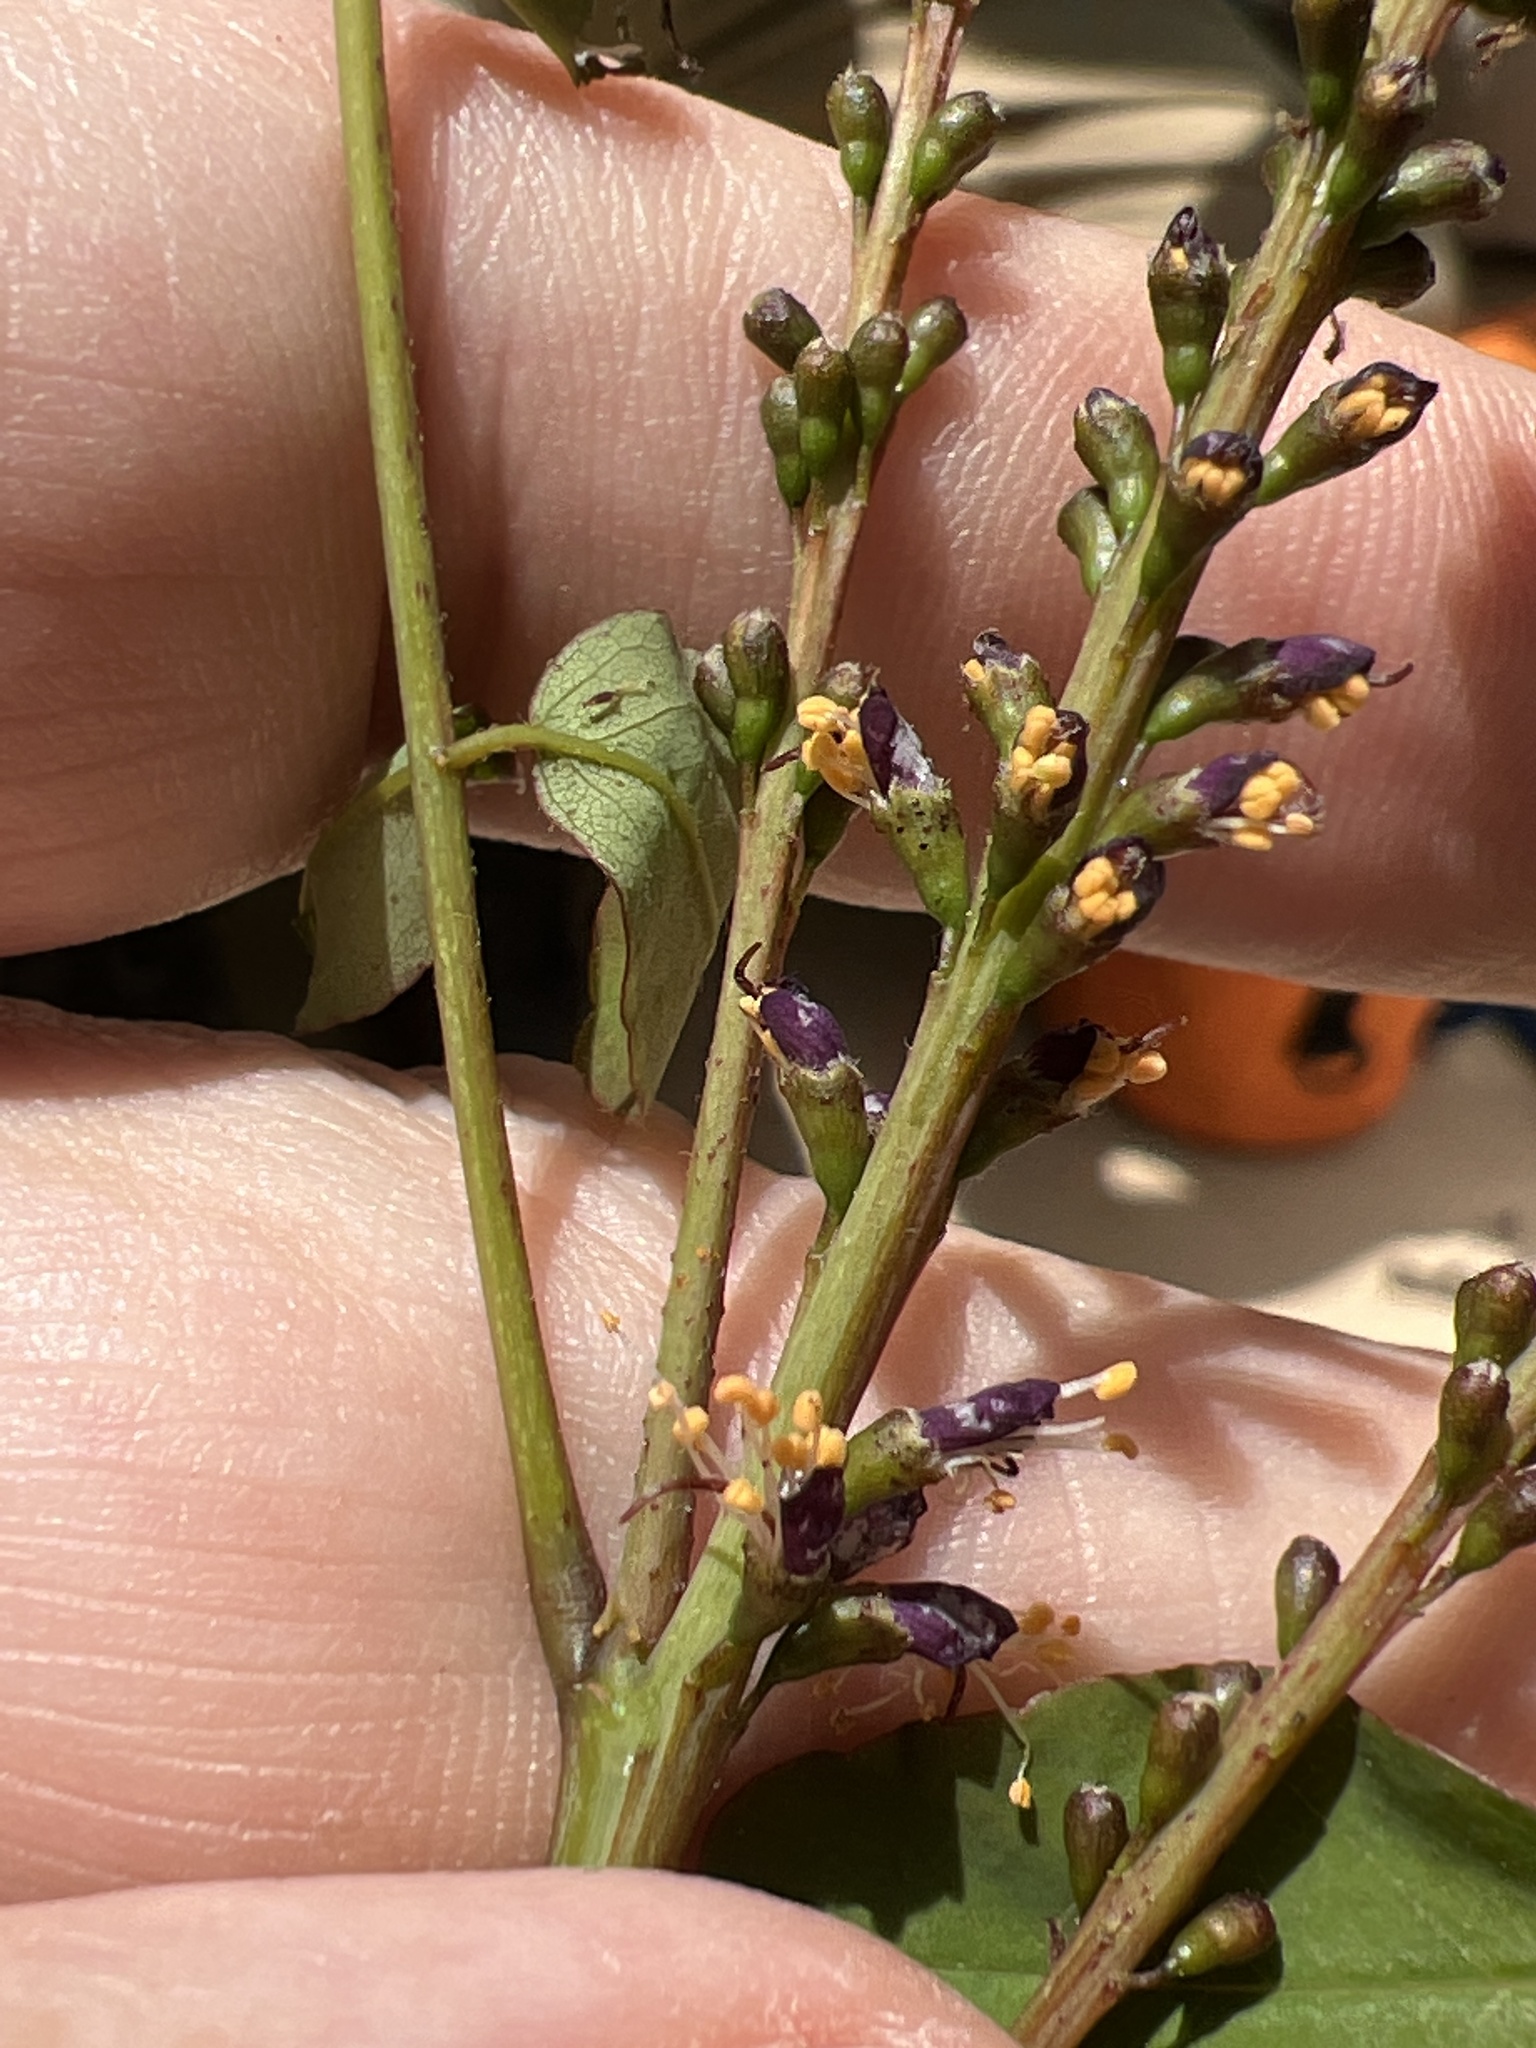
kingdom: Plantae
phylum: Tracheophyta
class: Magnoliopsida
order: Fabales
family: Fabaceae
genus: Amorpha
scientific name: Amorpha glabra
